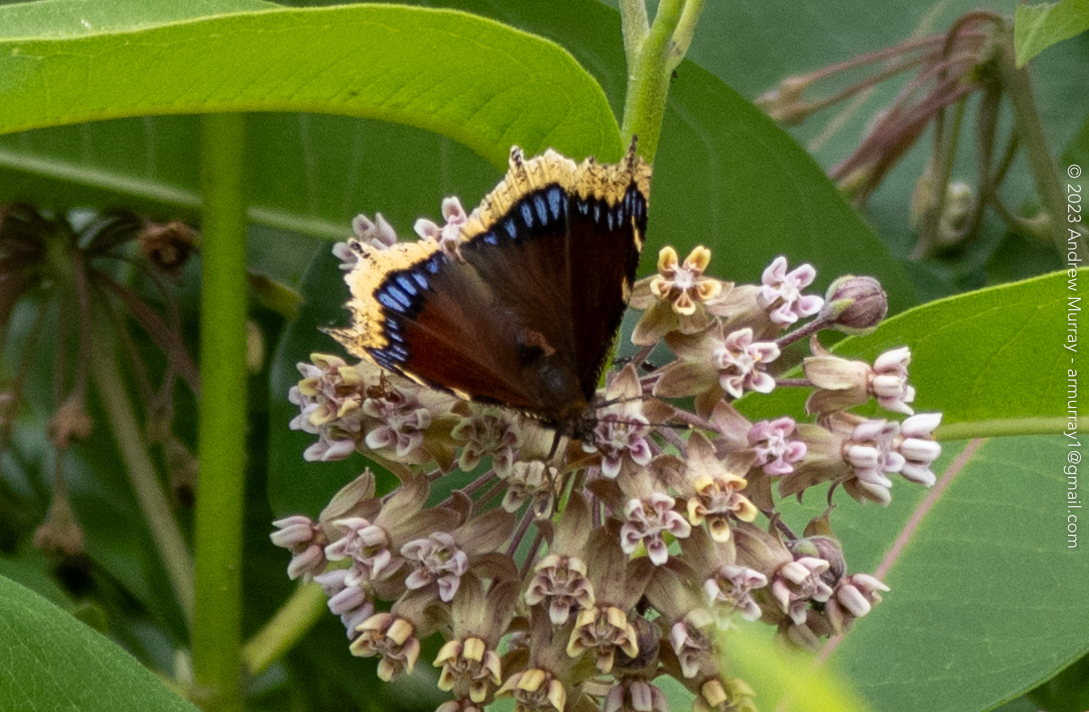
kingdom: Animalia
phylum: Arthropoda
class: Insecta
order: Lepidoptera
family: Nymphalidae
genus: Nymphalis
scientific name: Nymphalis antiopa
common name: Camberwell beauty
